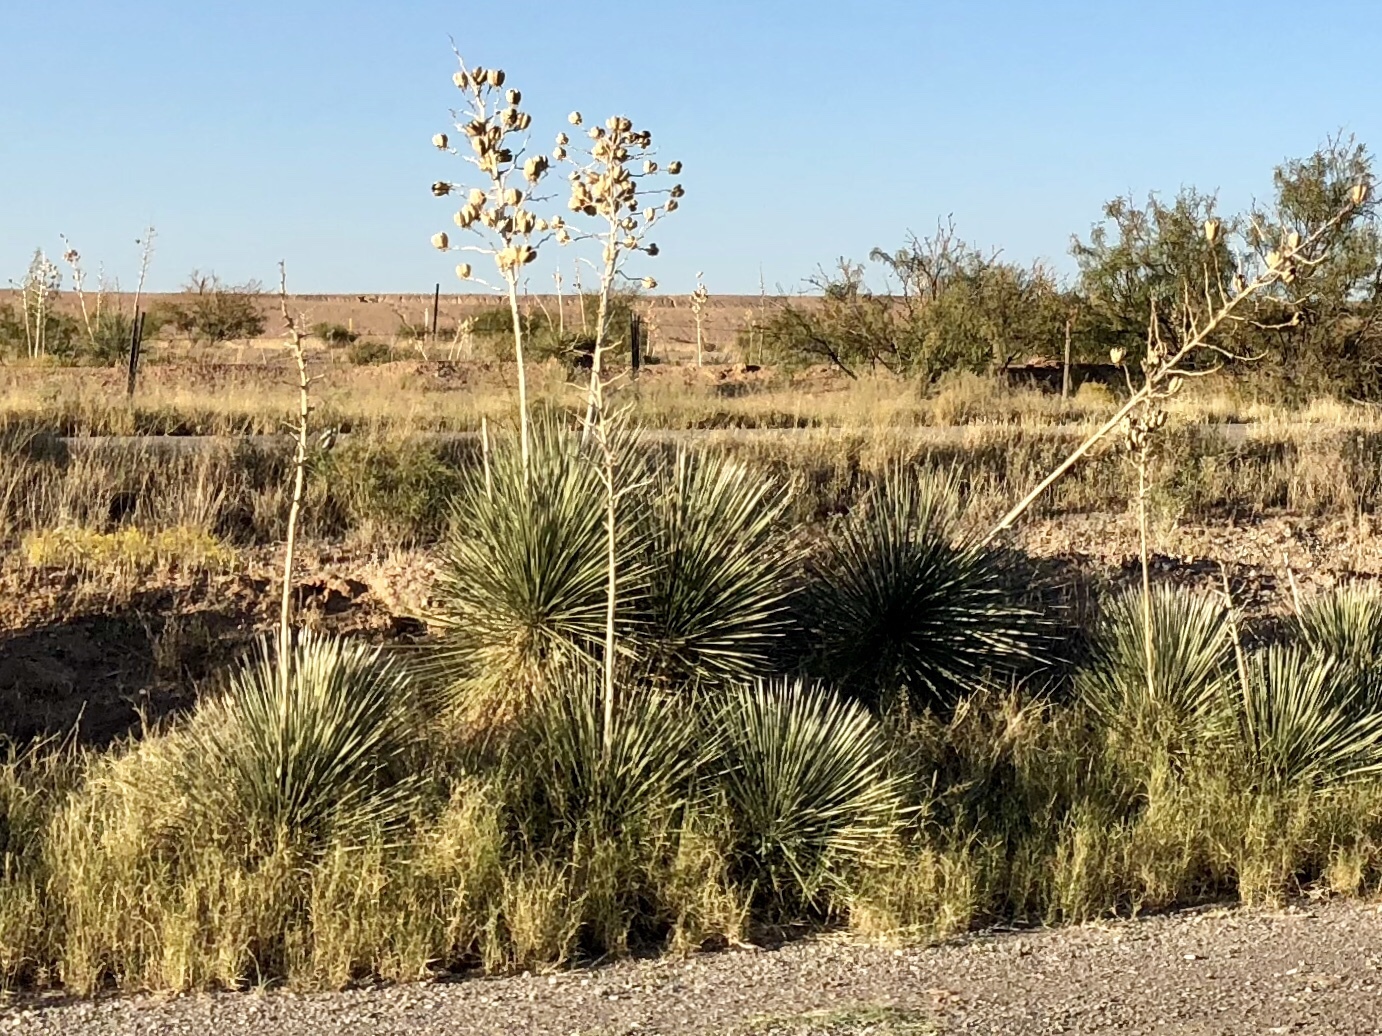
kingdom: Plantae
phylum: Tracheophyta
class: Liliopsida
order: Asparagales
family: Asparagaceae
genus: Yucca
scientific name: Yucca elata
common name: Palmella
